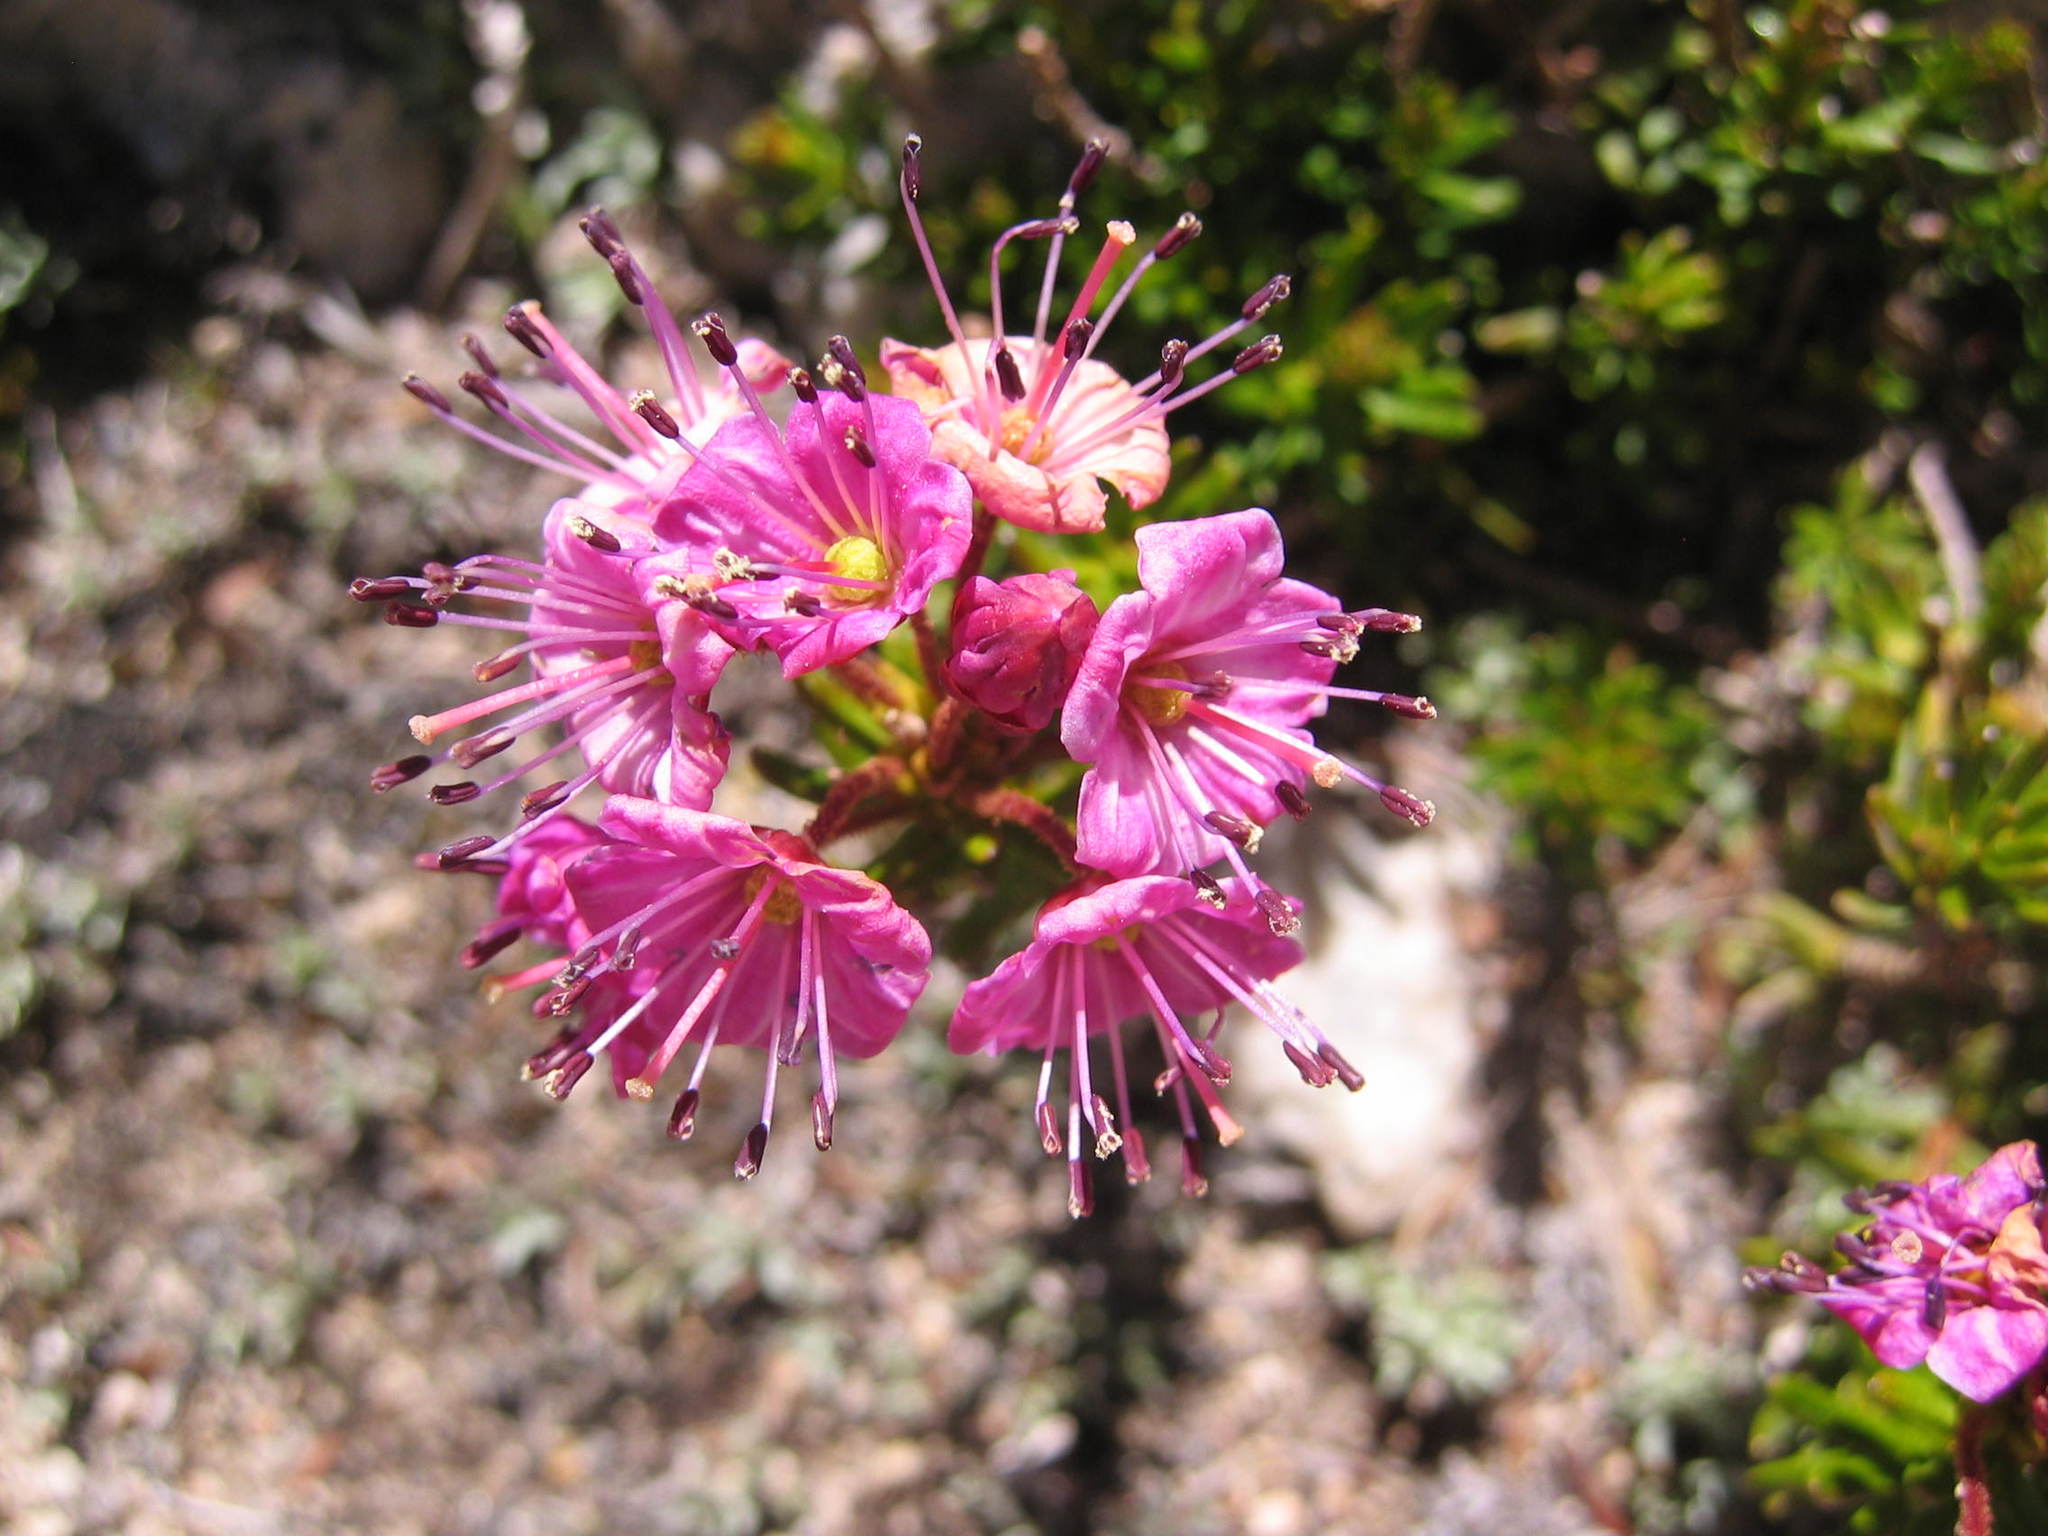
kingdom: Plantae
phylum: Tracheophyta
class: Magnoliopsida
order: Ericales
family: Ericaceae
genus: Phyllodoce
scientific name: Phyllodoce breweri
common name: Brewer's mountain-heather
